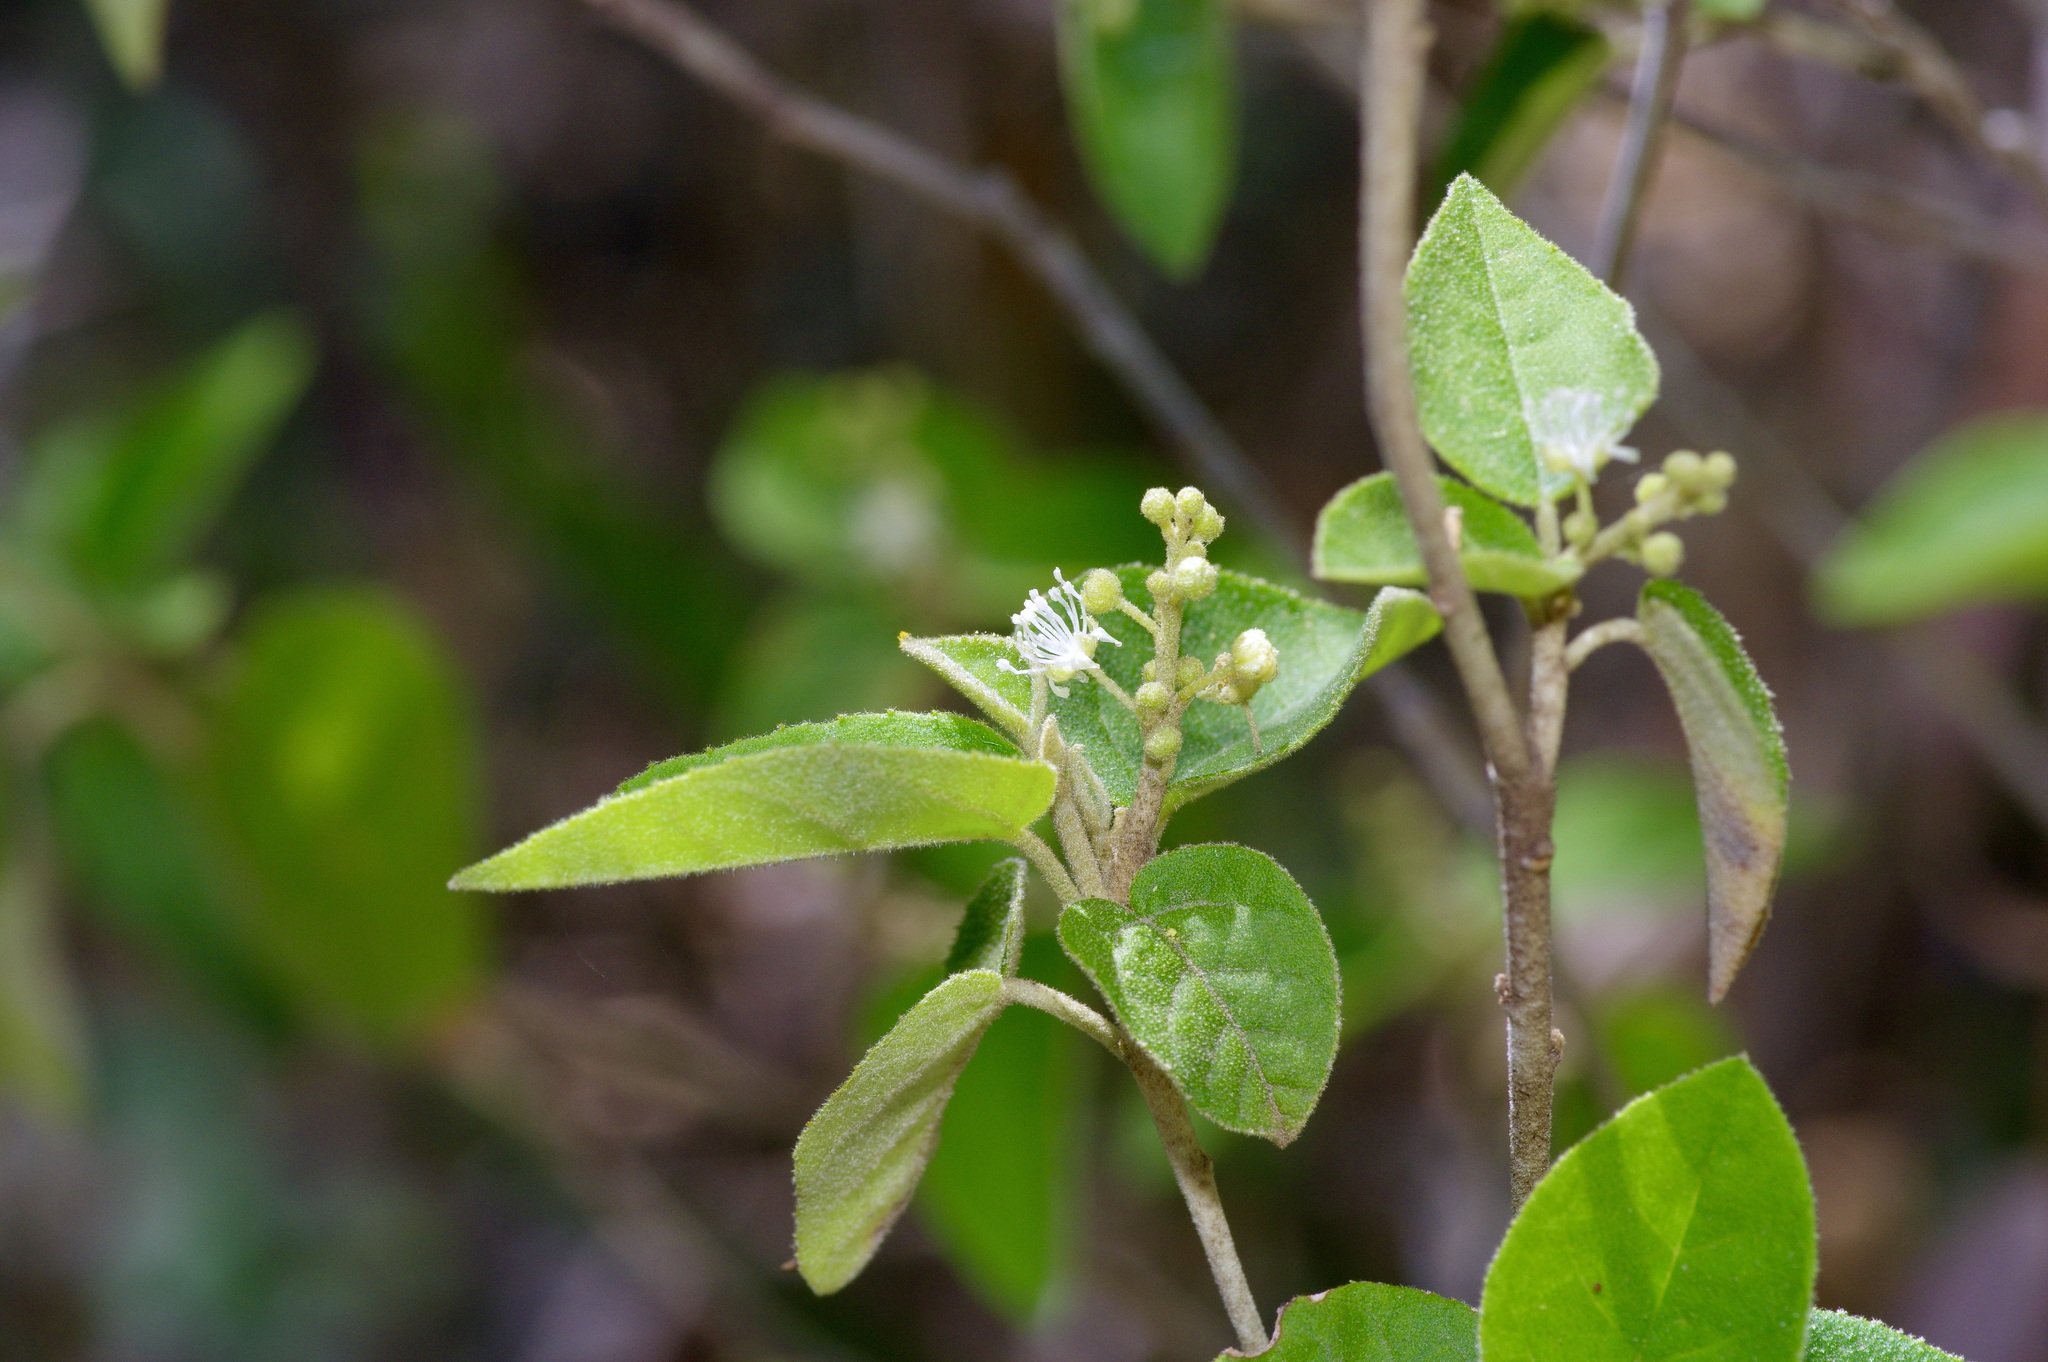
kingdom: Plantae
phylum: Tracheophyta
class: Magnoliopsida
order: Malpighiales
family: Euphorbiaceae
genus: Croton
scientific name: Croton fruticulosus
